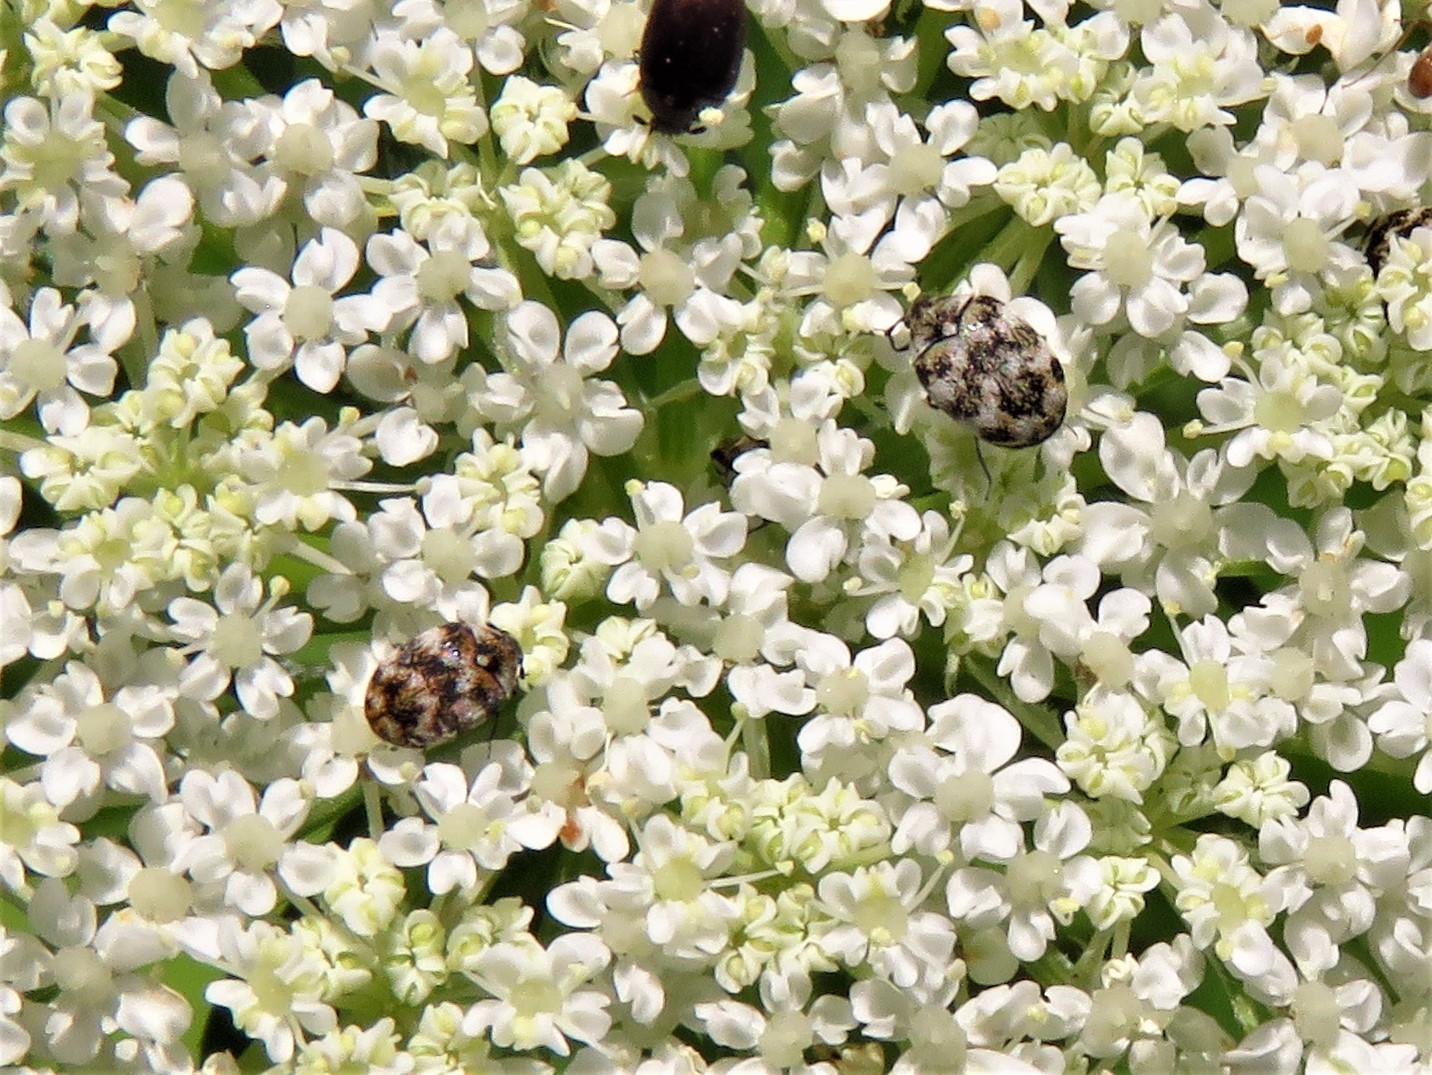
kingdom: Animalia
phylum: Arthropoda
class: Insecta
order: Coleoptera
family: Dermestidae
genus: Anthrenus
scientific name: Anthrenus verbasci
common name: Varied carpet beetle
